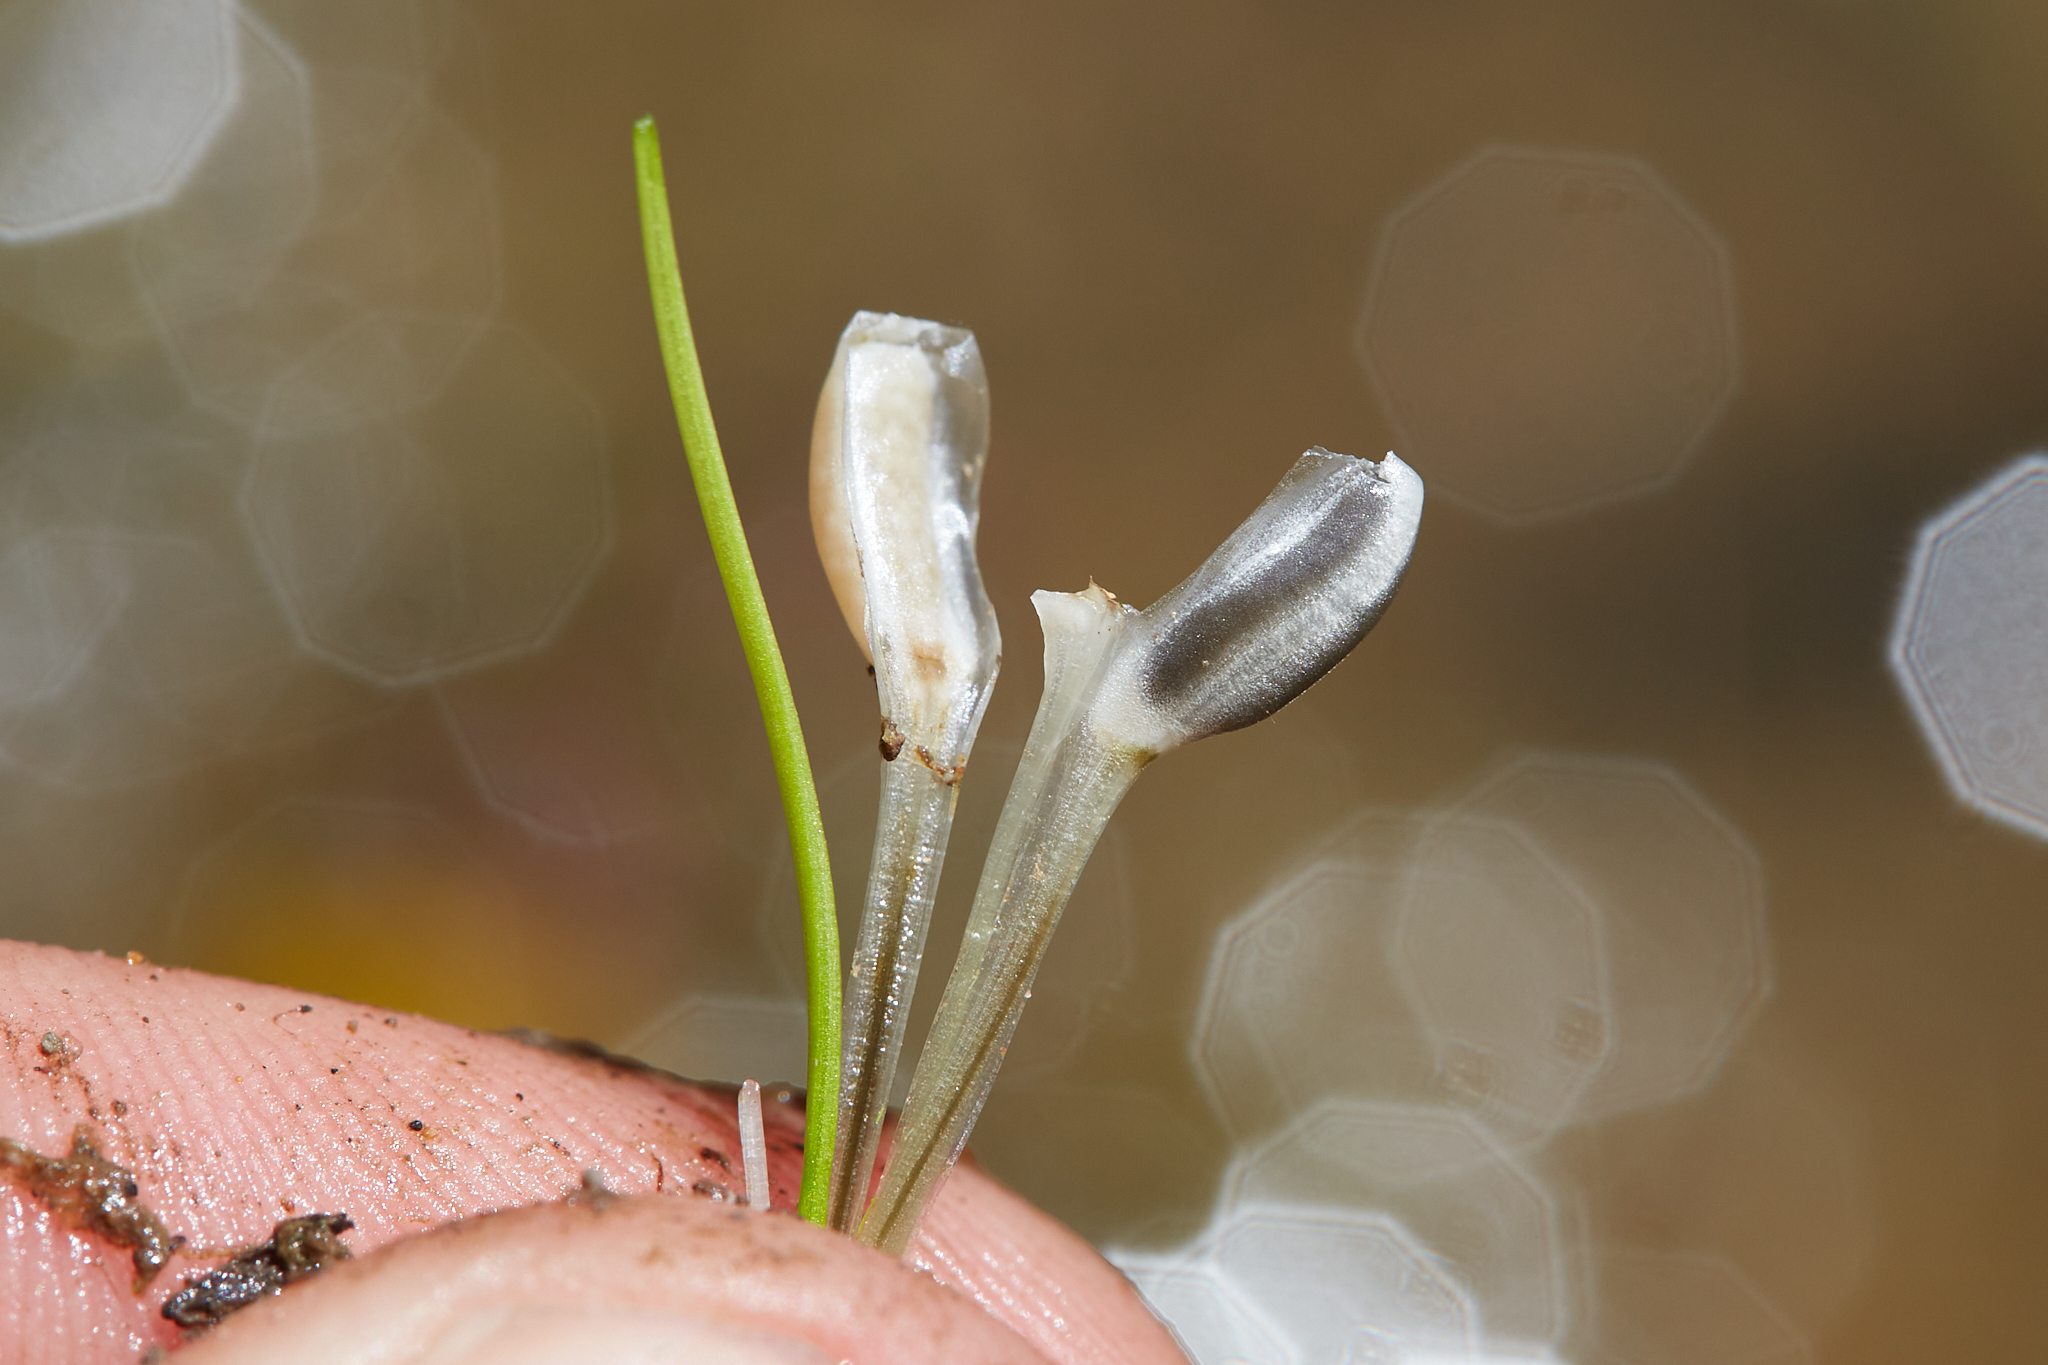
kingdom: Plantae
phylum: Tracheophyta
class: Lycopodiopsida
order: Isoetales
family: Isoetaceae
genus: Isoetes
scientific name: Isoetes nuttallii
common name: Nuttall's quillwort
